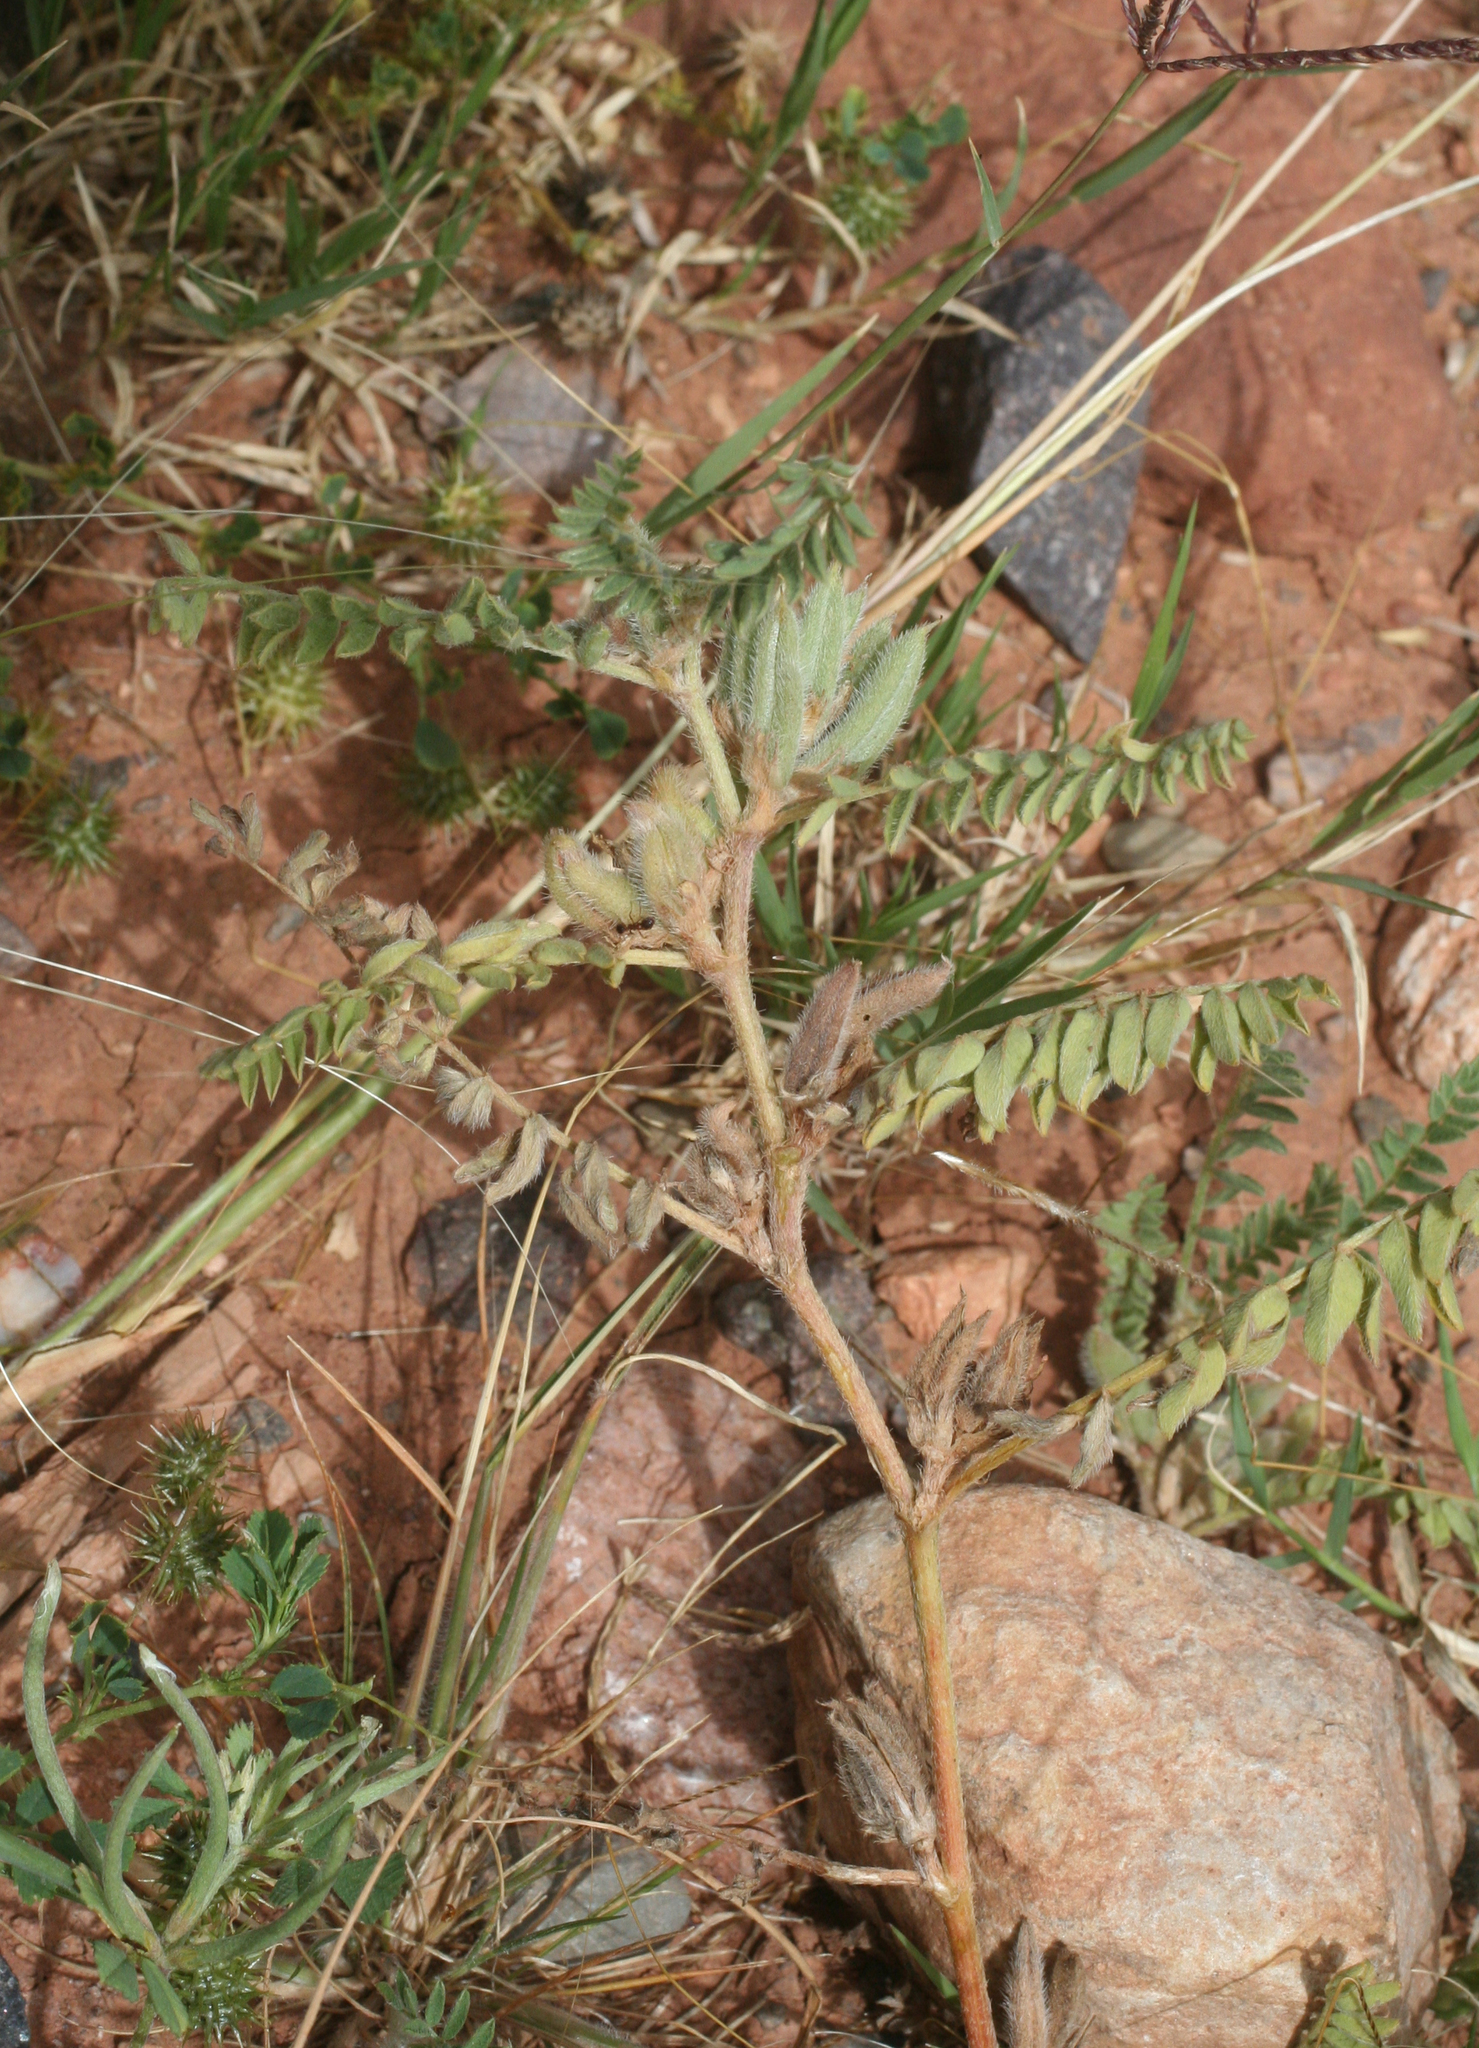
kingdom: Plantae
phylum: Tracheophyta
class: Magnoliopsida
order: Fabales
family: Fabaceae
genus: Astragalus
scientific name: Astragalus sesameus
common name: Purple milk-vetch
